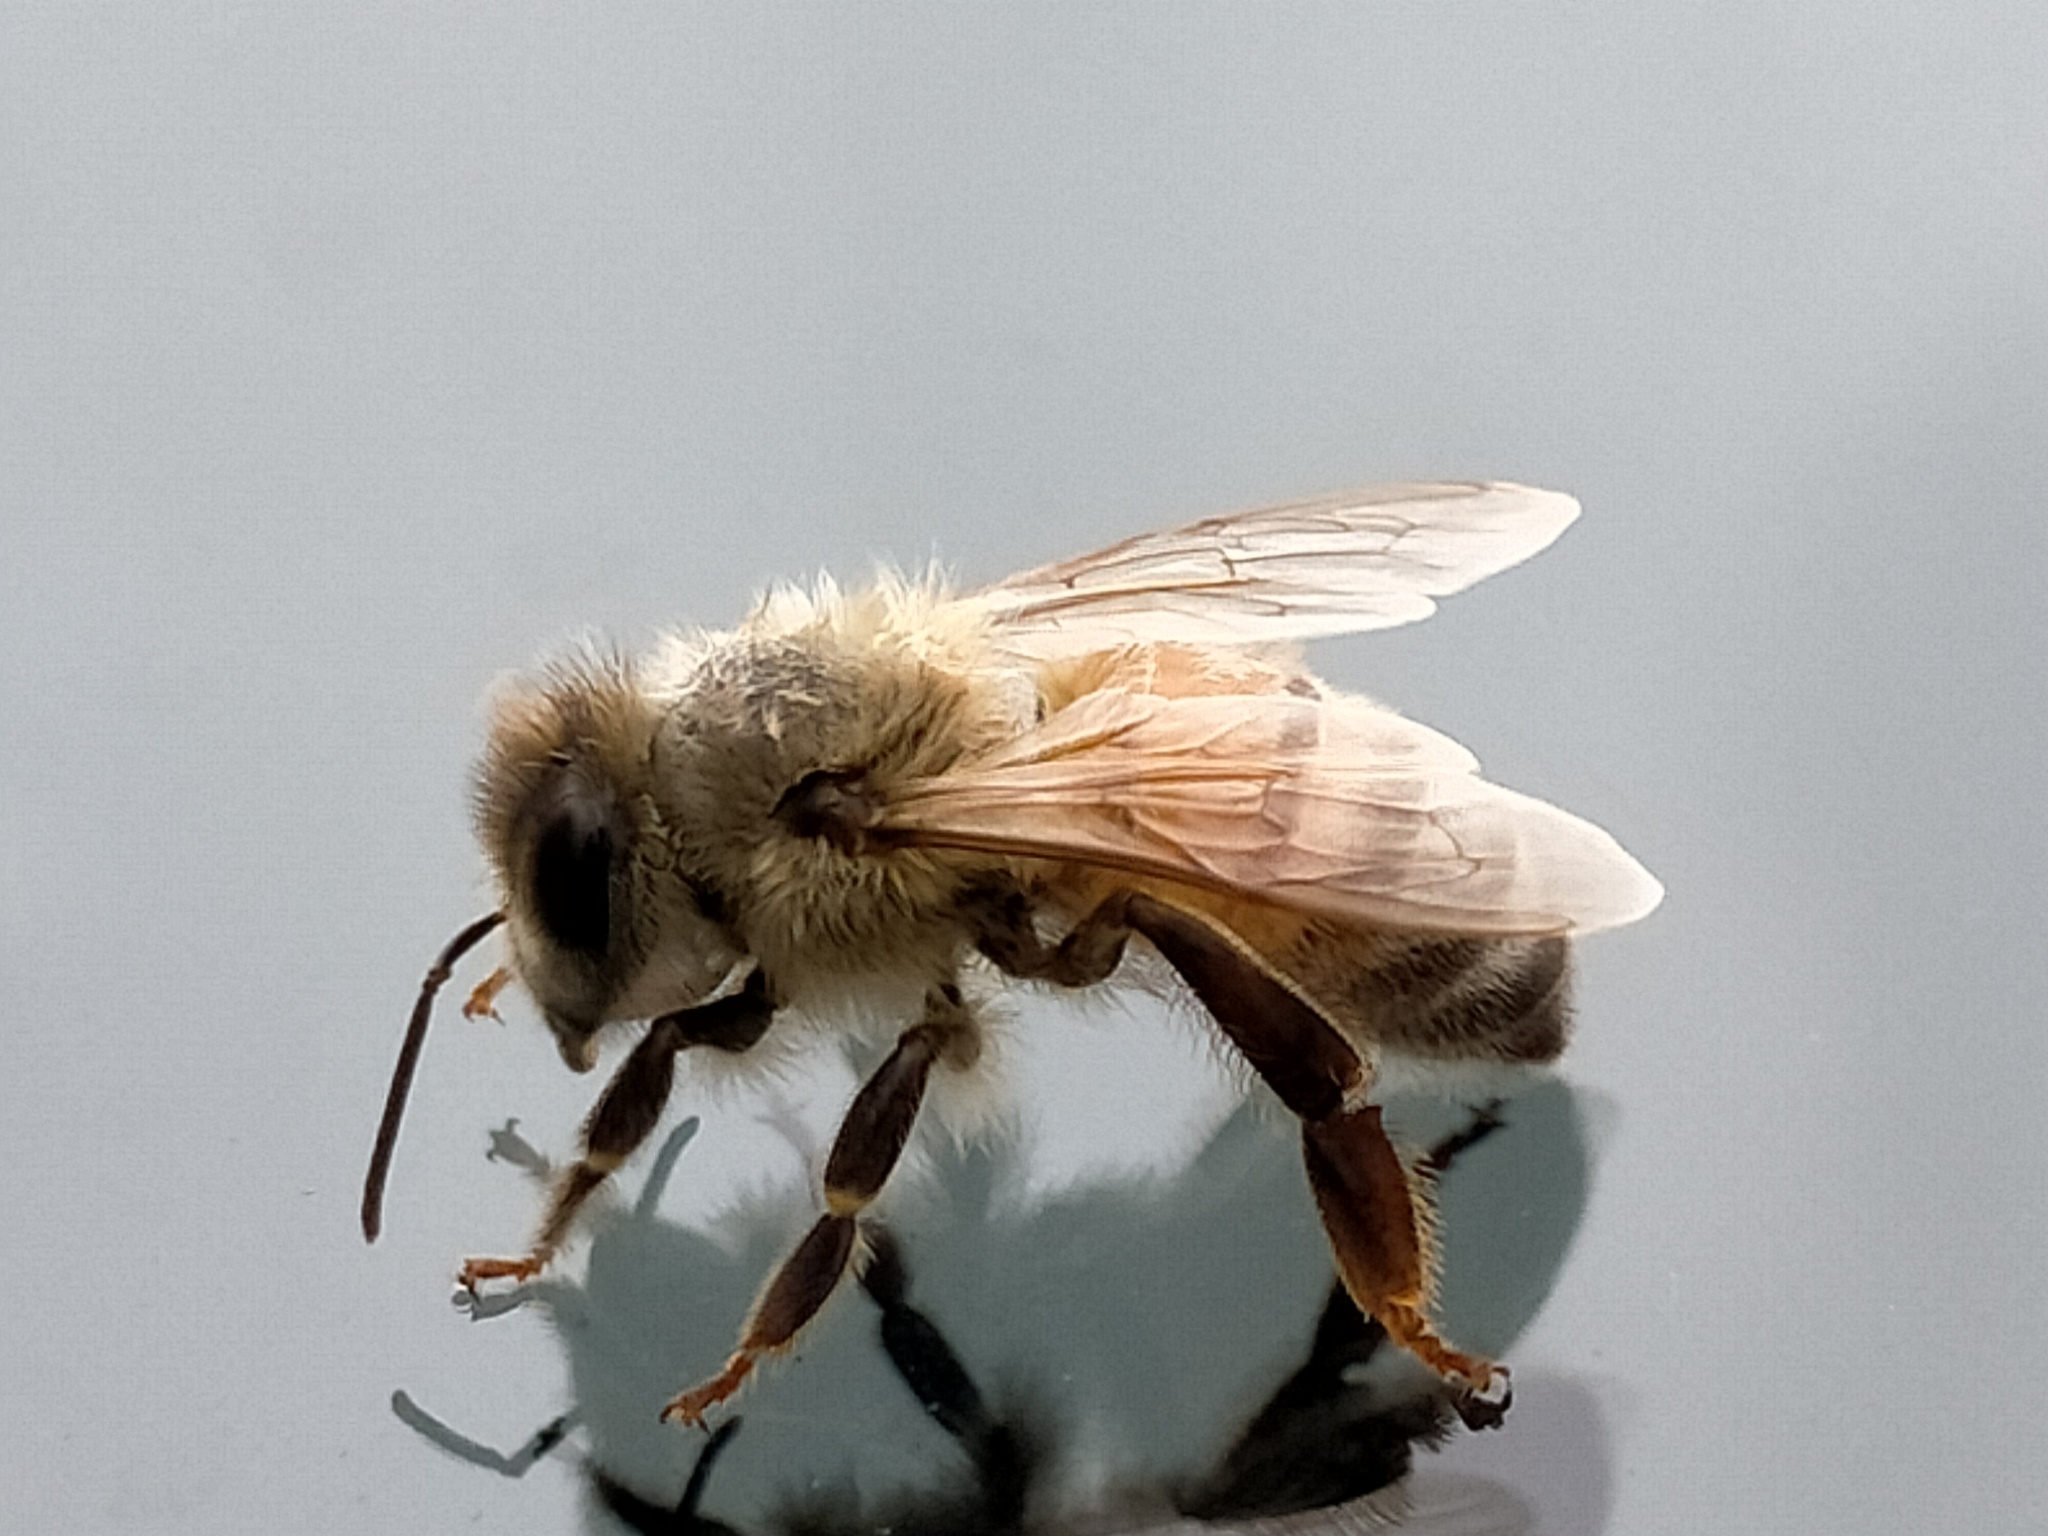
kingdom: Animalia
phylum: Arthropoda
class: Insecta
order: Hymenoptera
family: Apidae
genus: Apis
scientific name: Apis mellifera
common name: Honey bee
